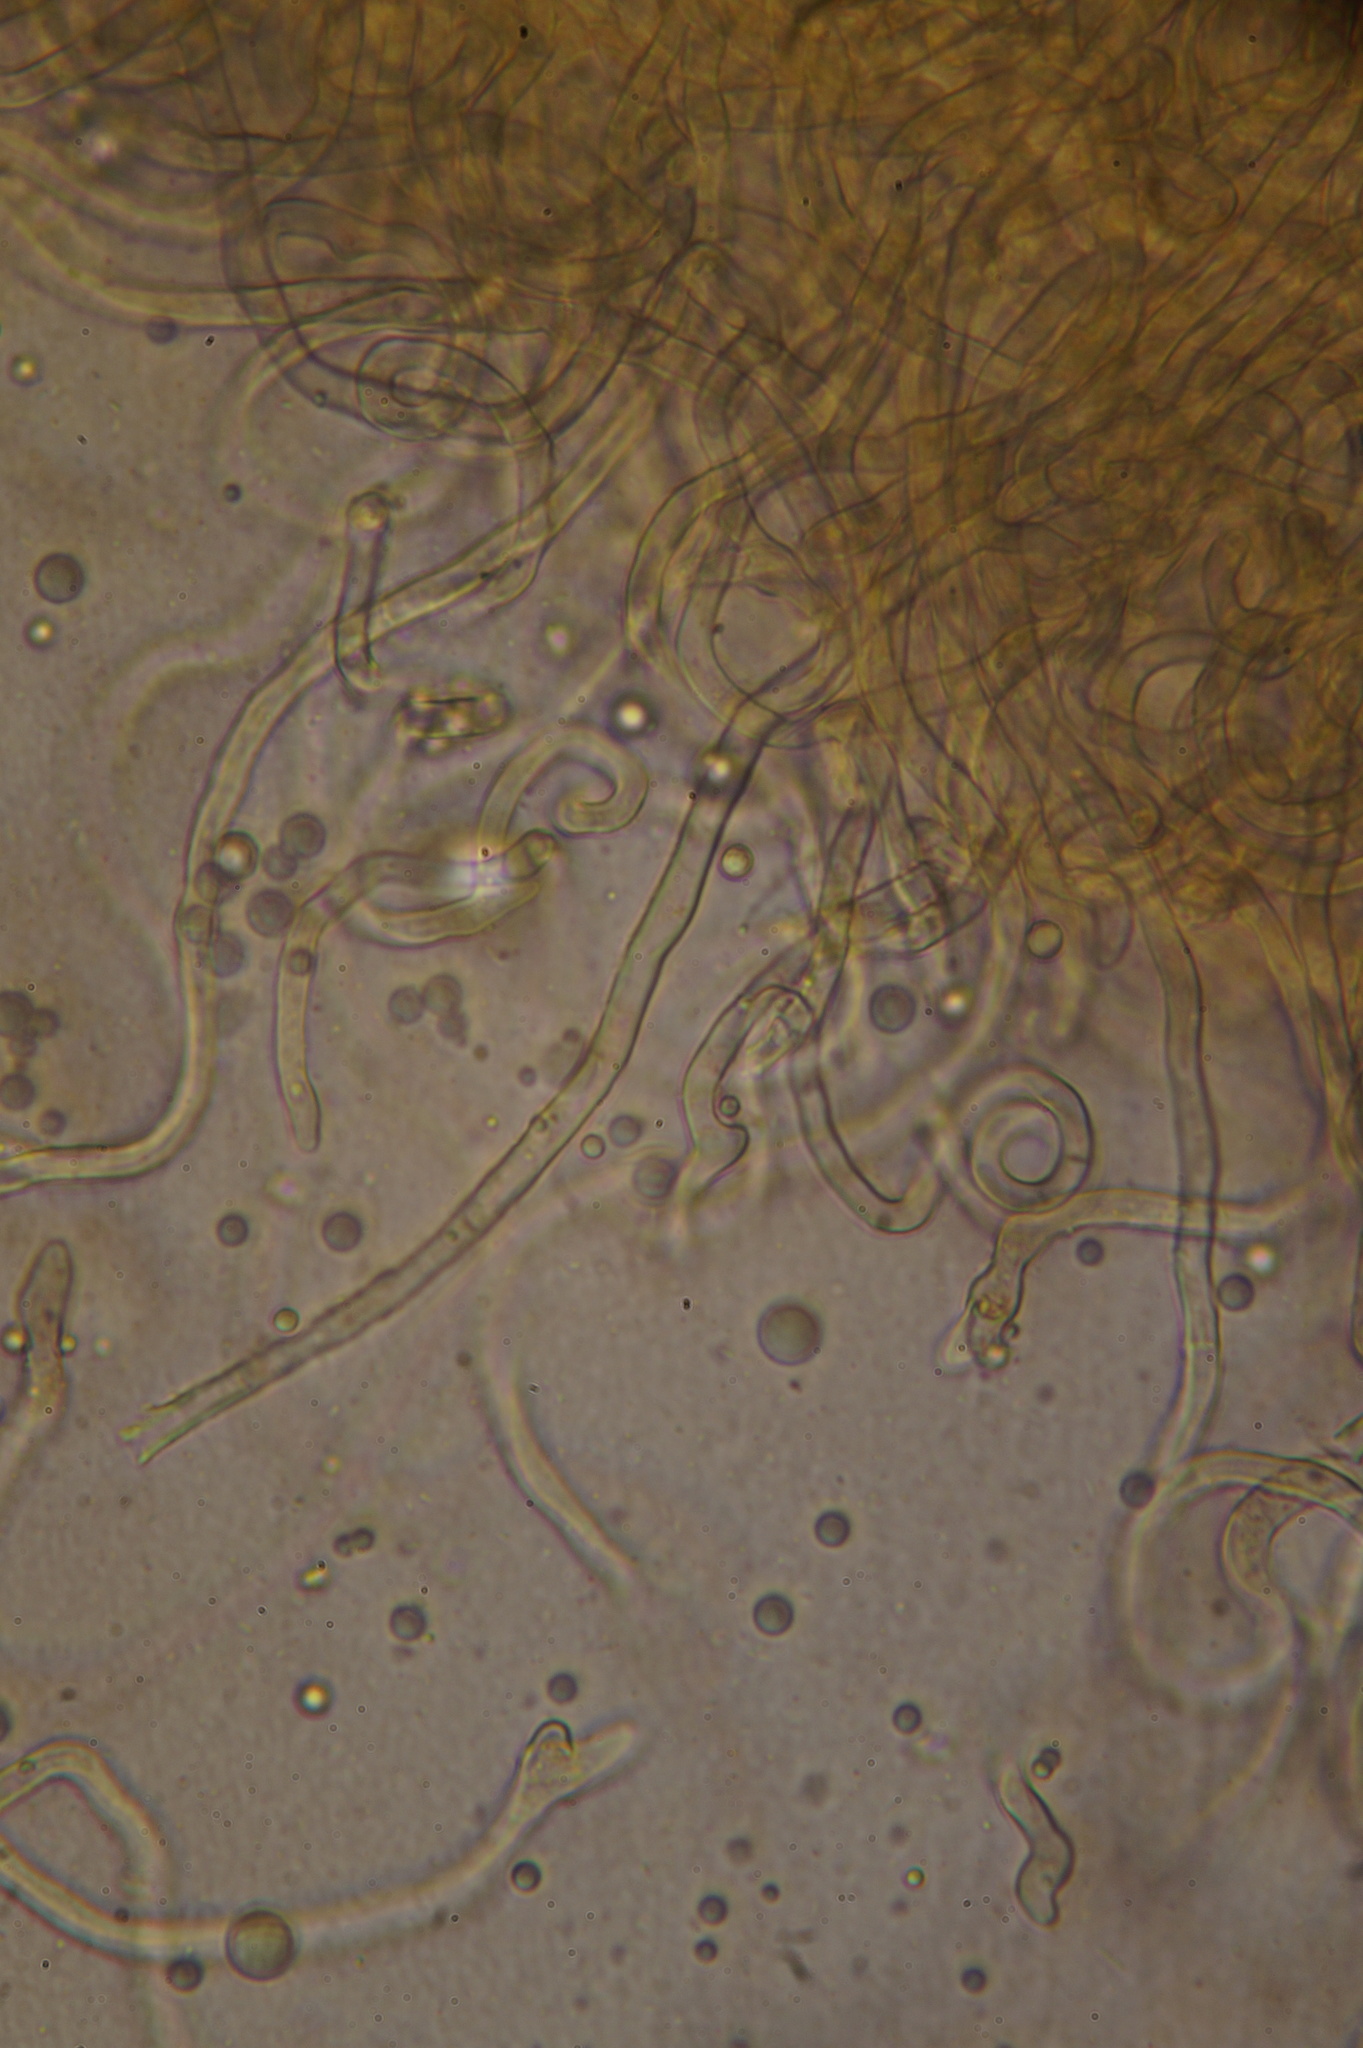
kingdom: Fungi
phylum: Ascomycota
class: Pezizomycetes
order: Pezizales
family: Sarcoscyphaceae
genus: Sarcoscypha
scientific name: Sarcoscypha austriaca
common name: Scarlet elfcup
